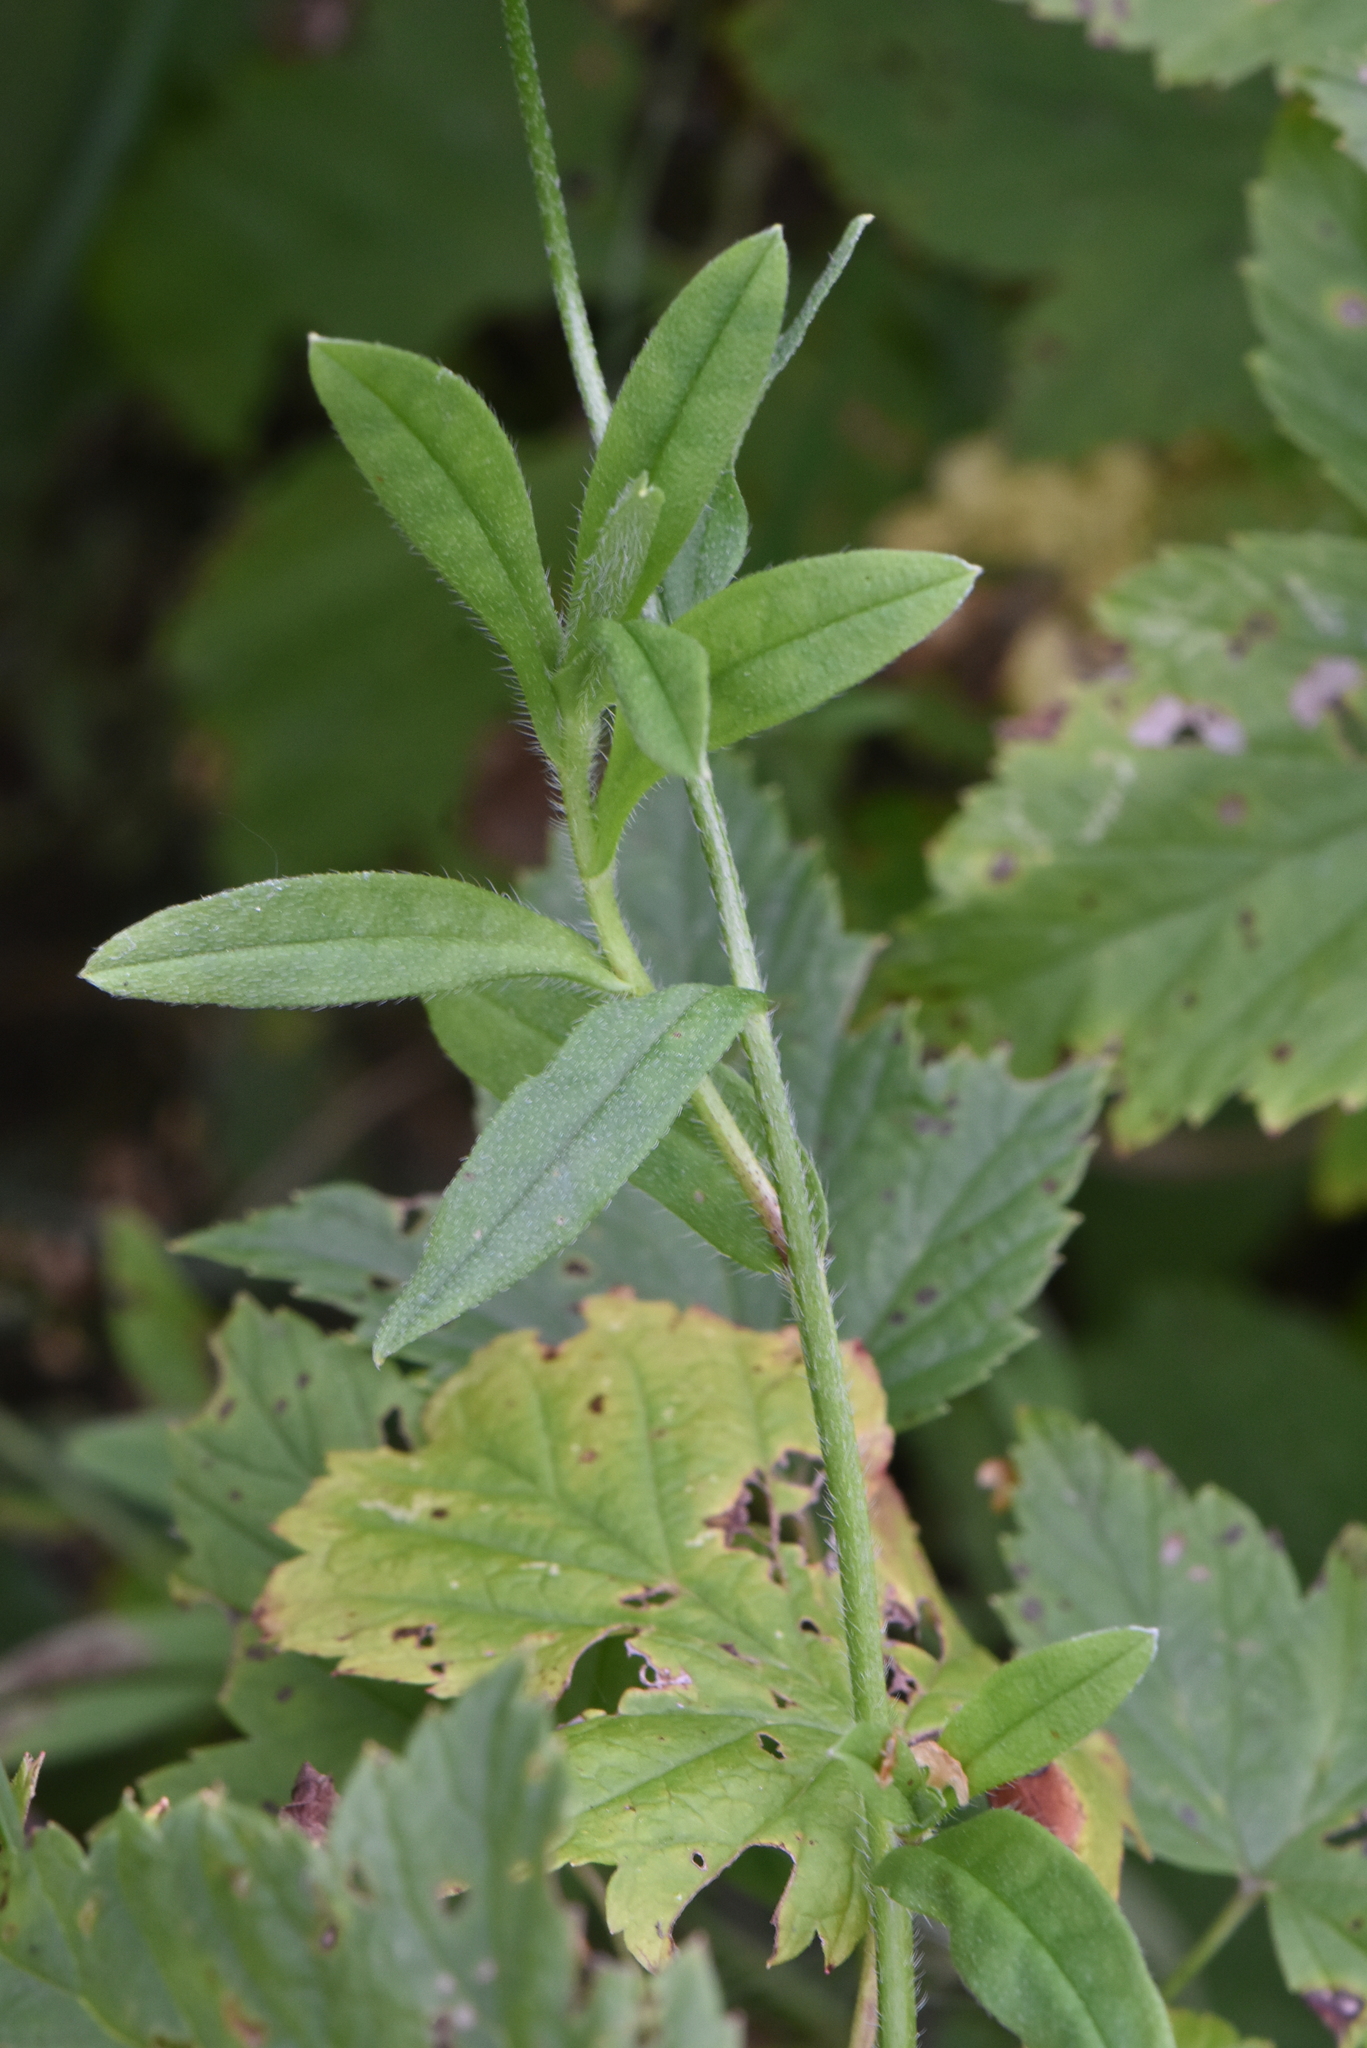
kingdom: Plantae
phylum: Tracheophyta
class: Magnoliopsida
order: Boraginales
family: Boraginaceae
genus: Myosotis
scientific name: Myosotis scorpioides
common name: Water forget-me-not
